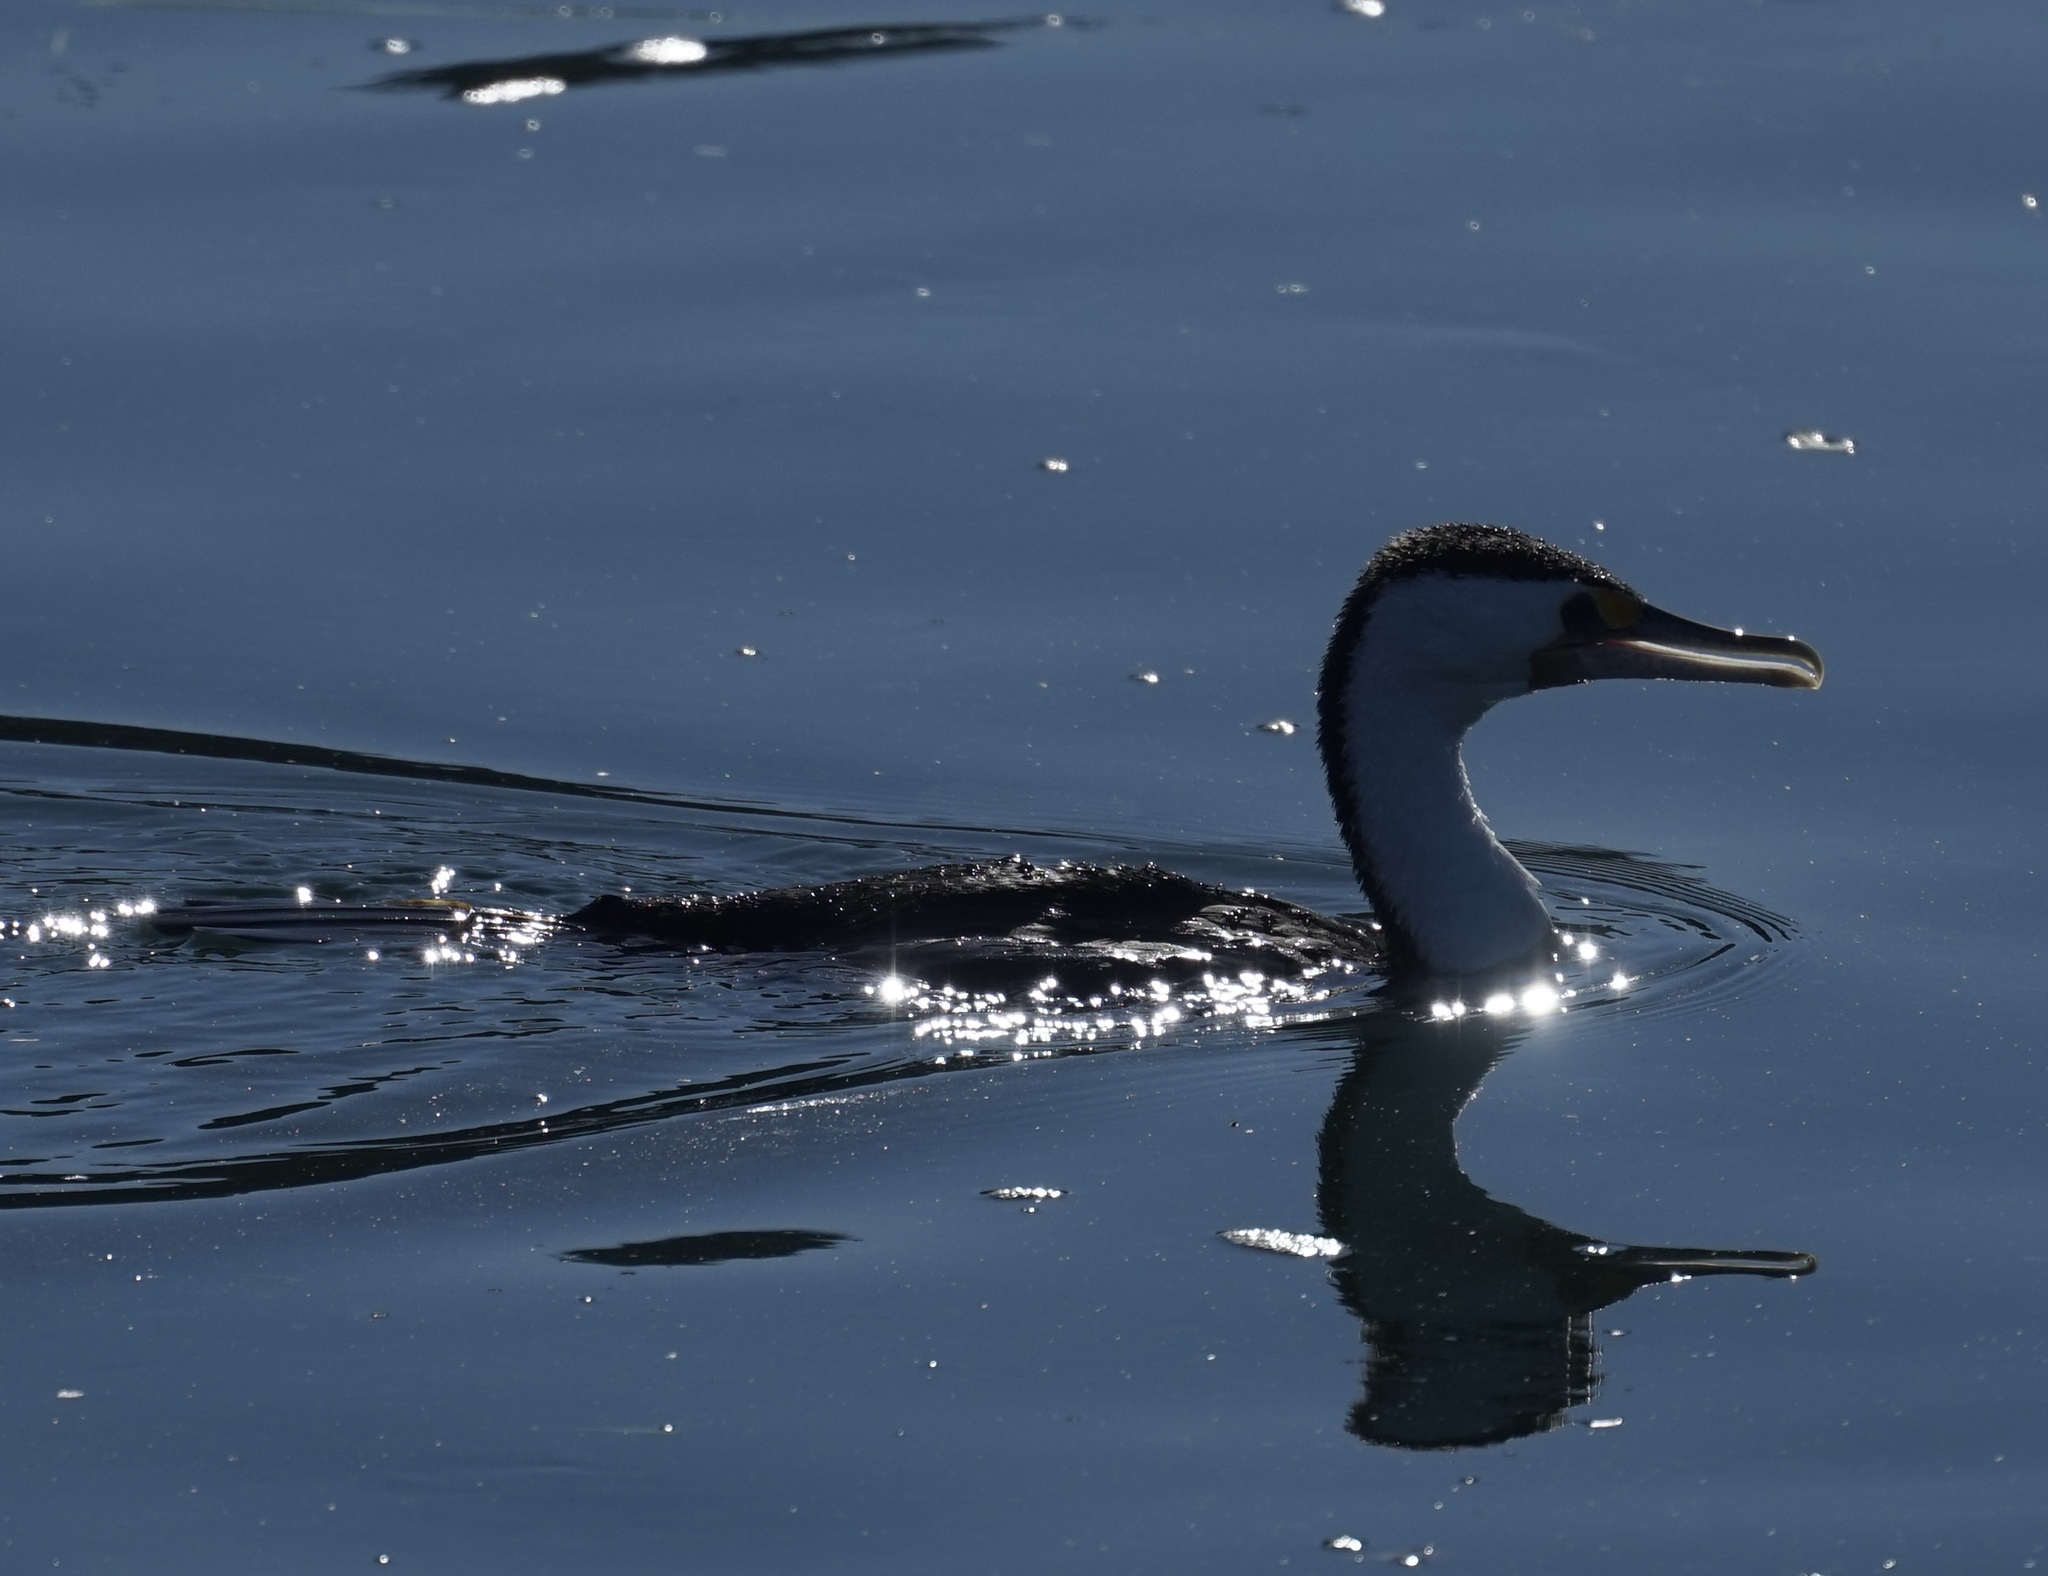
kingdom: Animalia
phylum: Chordata
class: Aves
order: Suliformes
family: Phalacrocoracidae
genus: Phalacrocorax
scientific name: Phalacrocorax varius
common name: Pied cormorant
